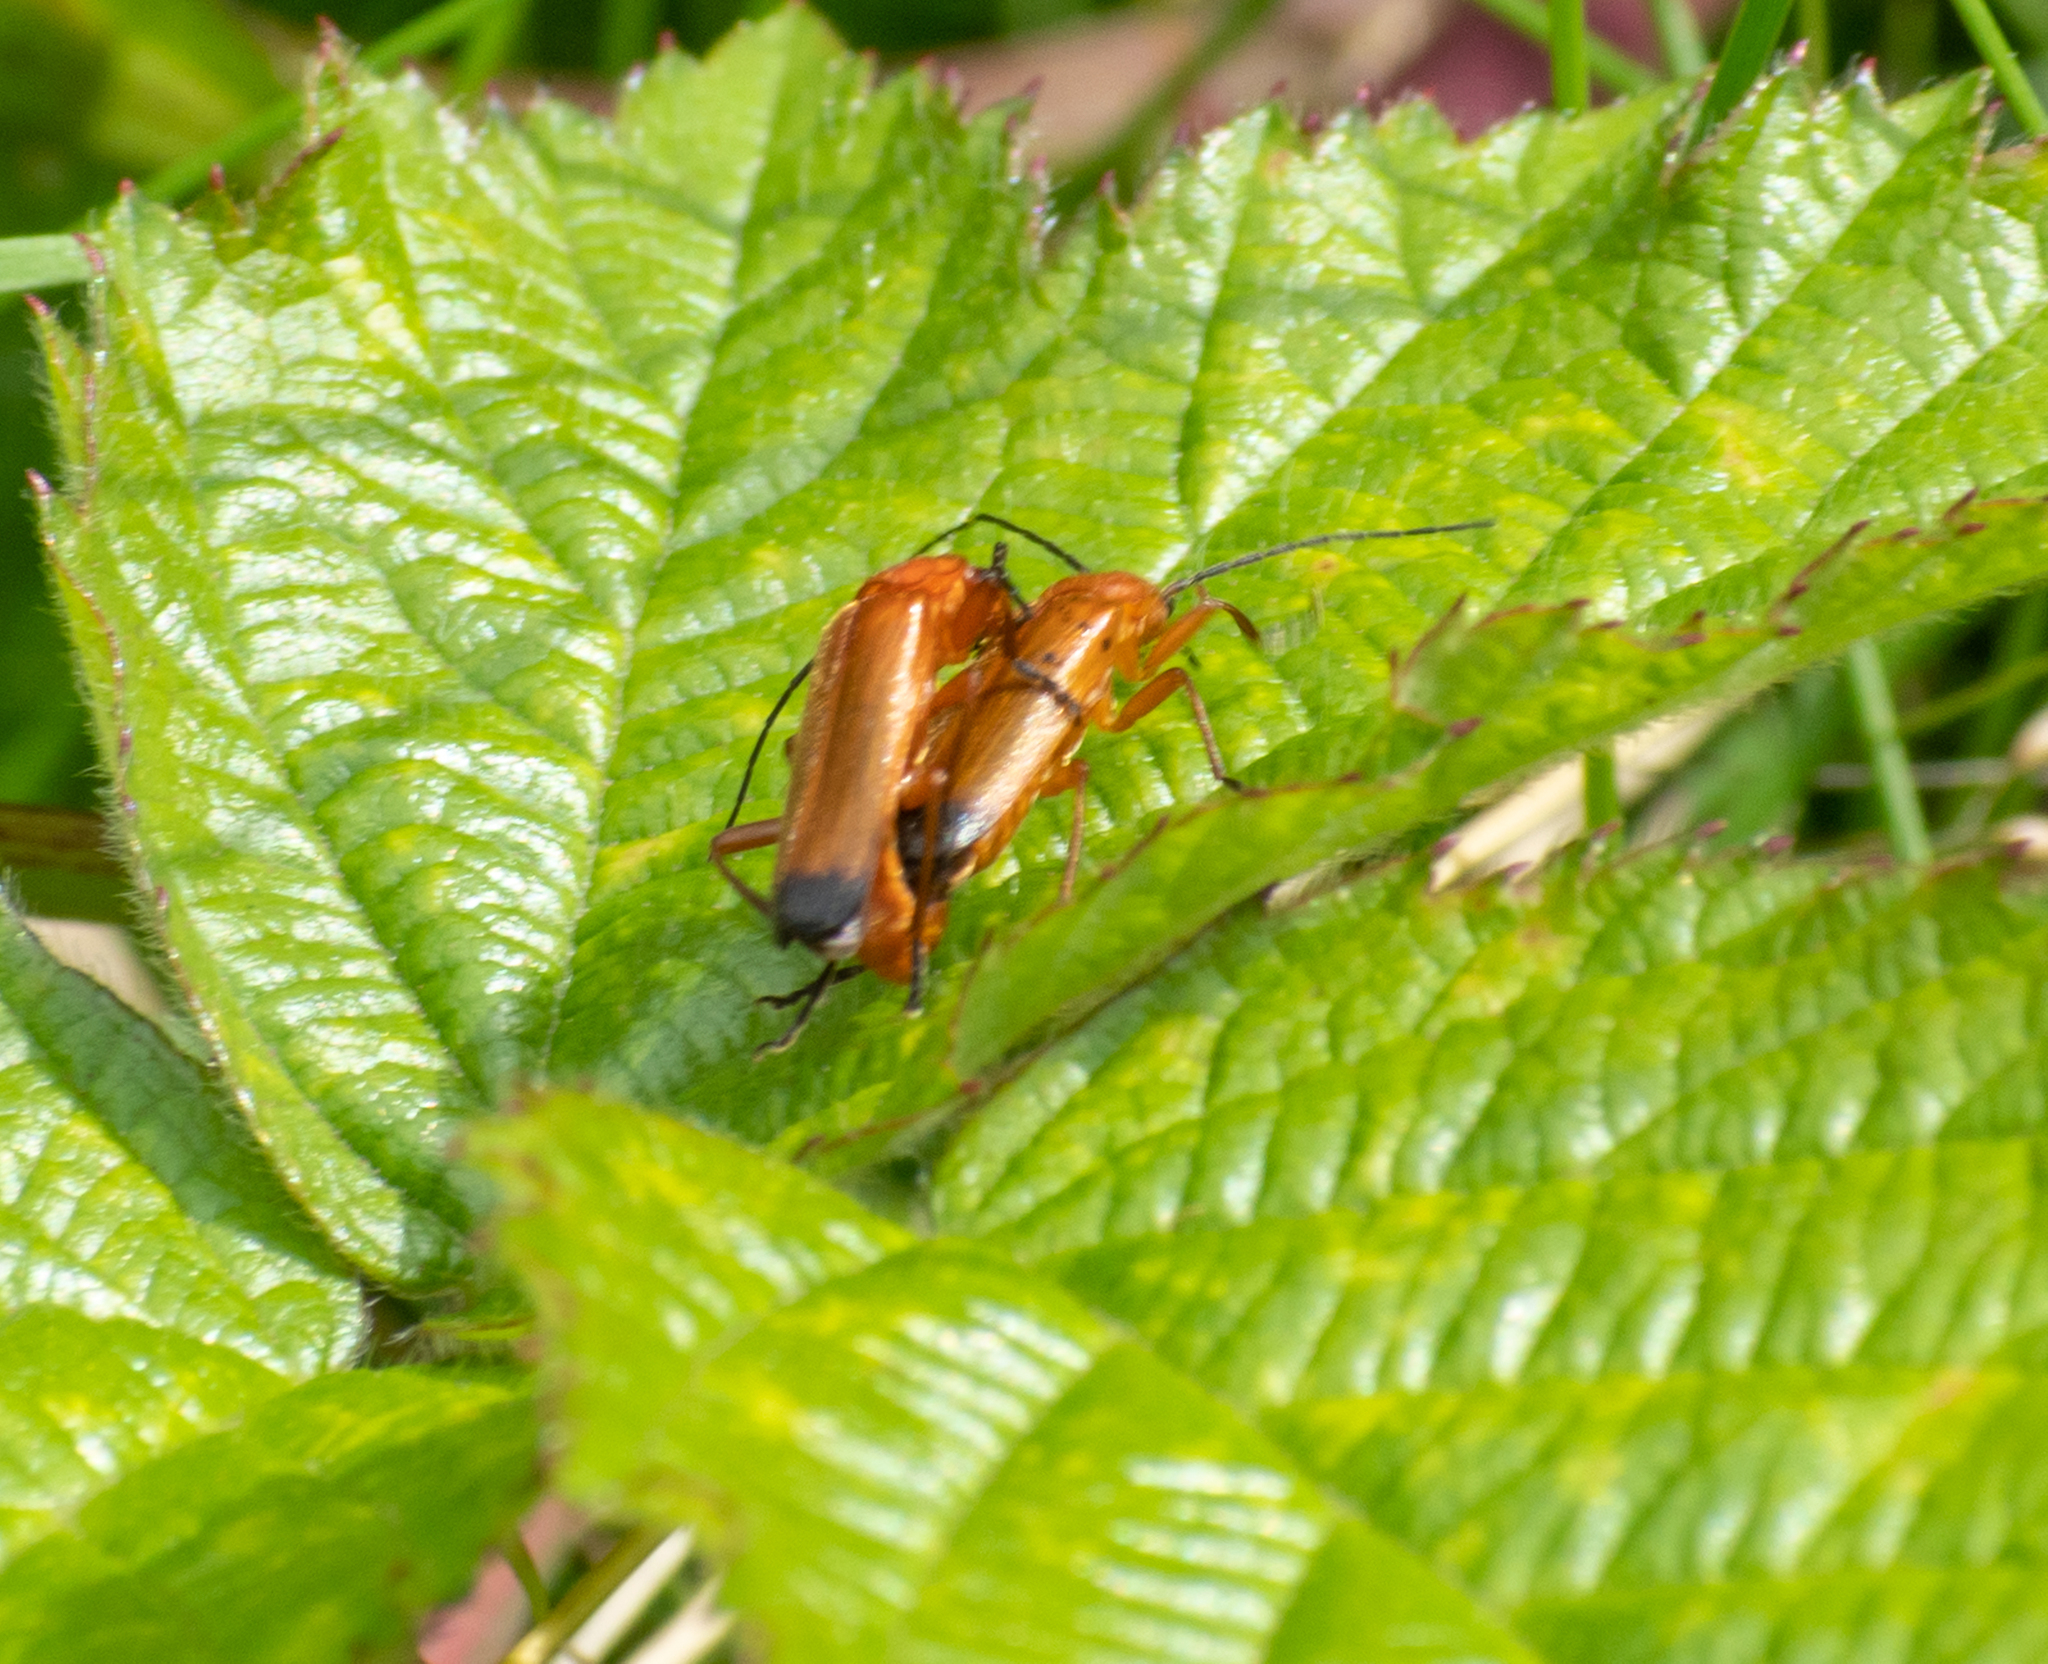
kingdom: Animalia
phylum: Arthropoda
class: Insecta
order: Coleoptera
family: Cantharidae
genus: Rhagonycha
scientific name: Rhagonycha fulva
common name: Common red soldier beetle
